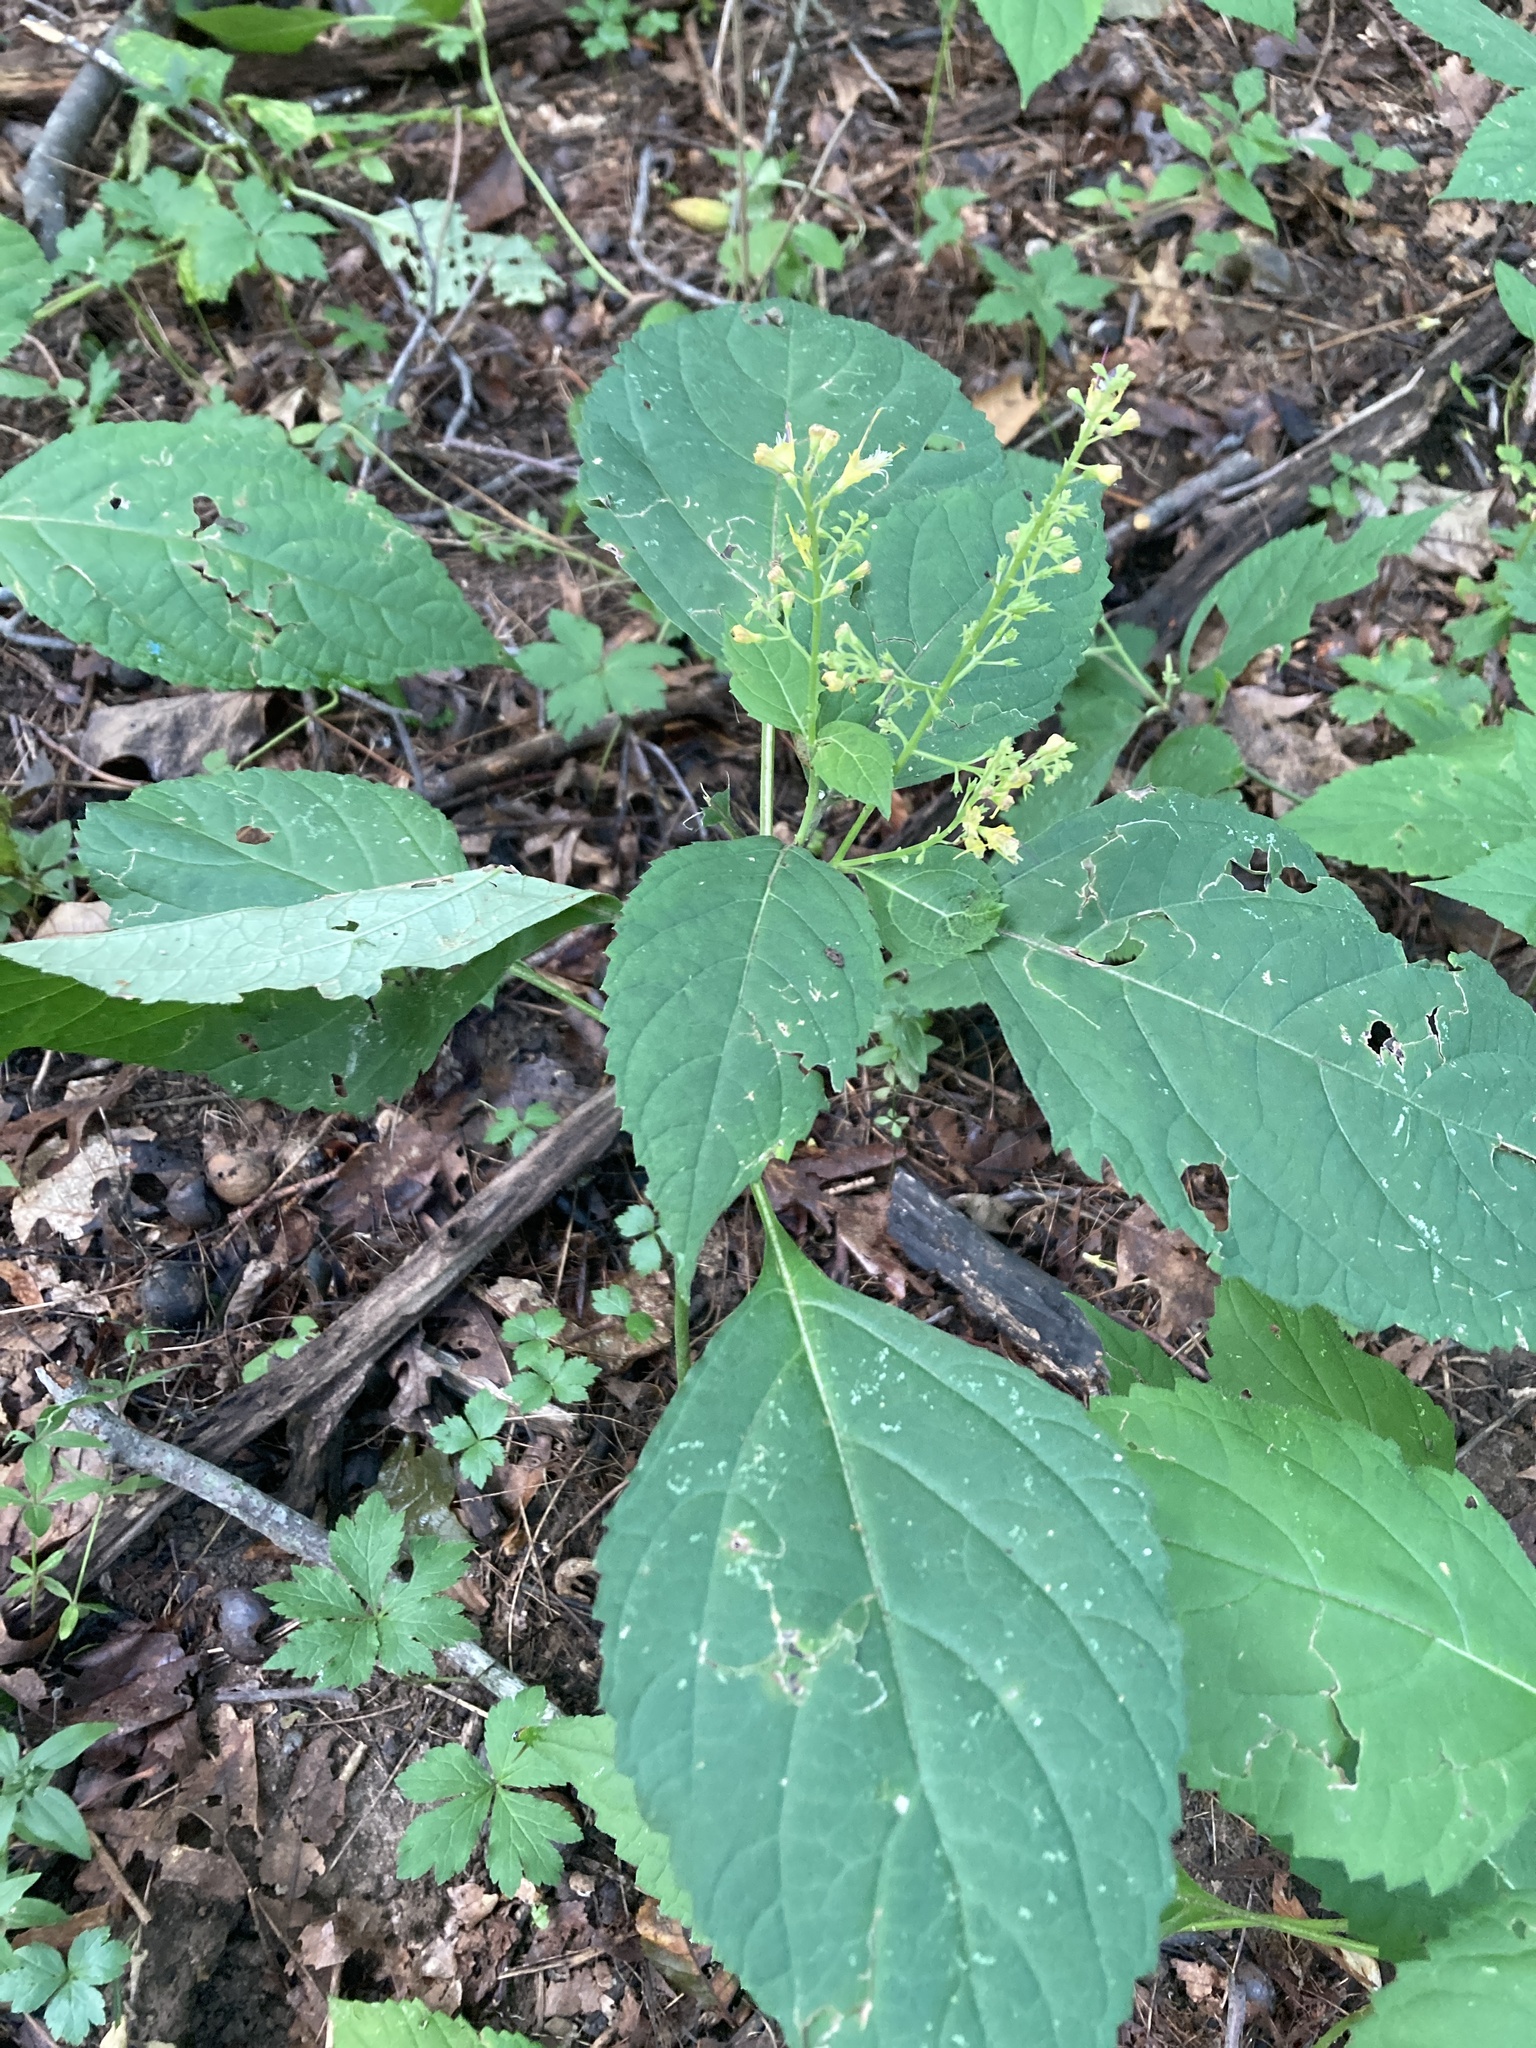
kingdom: Plantae
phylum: Tracheophyta
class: Magnoliopsida
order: Lamiales
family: Lamiaceae
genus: Collinsonia
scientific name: Collinsonia canadensis
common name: Northern horsebalm
